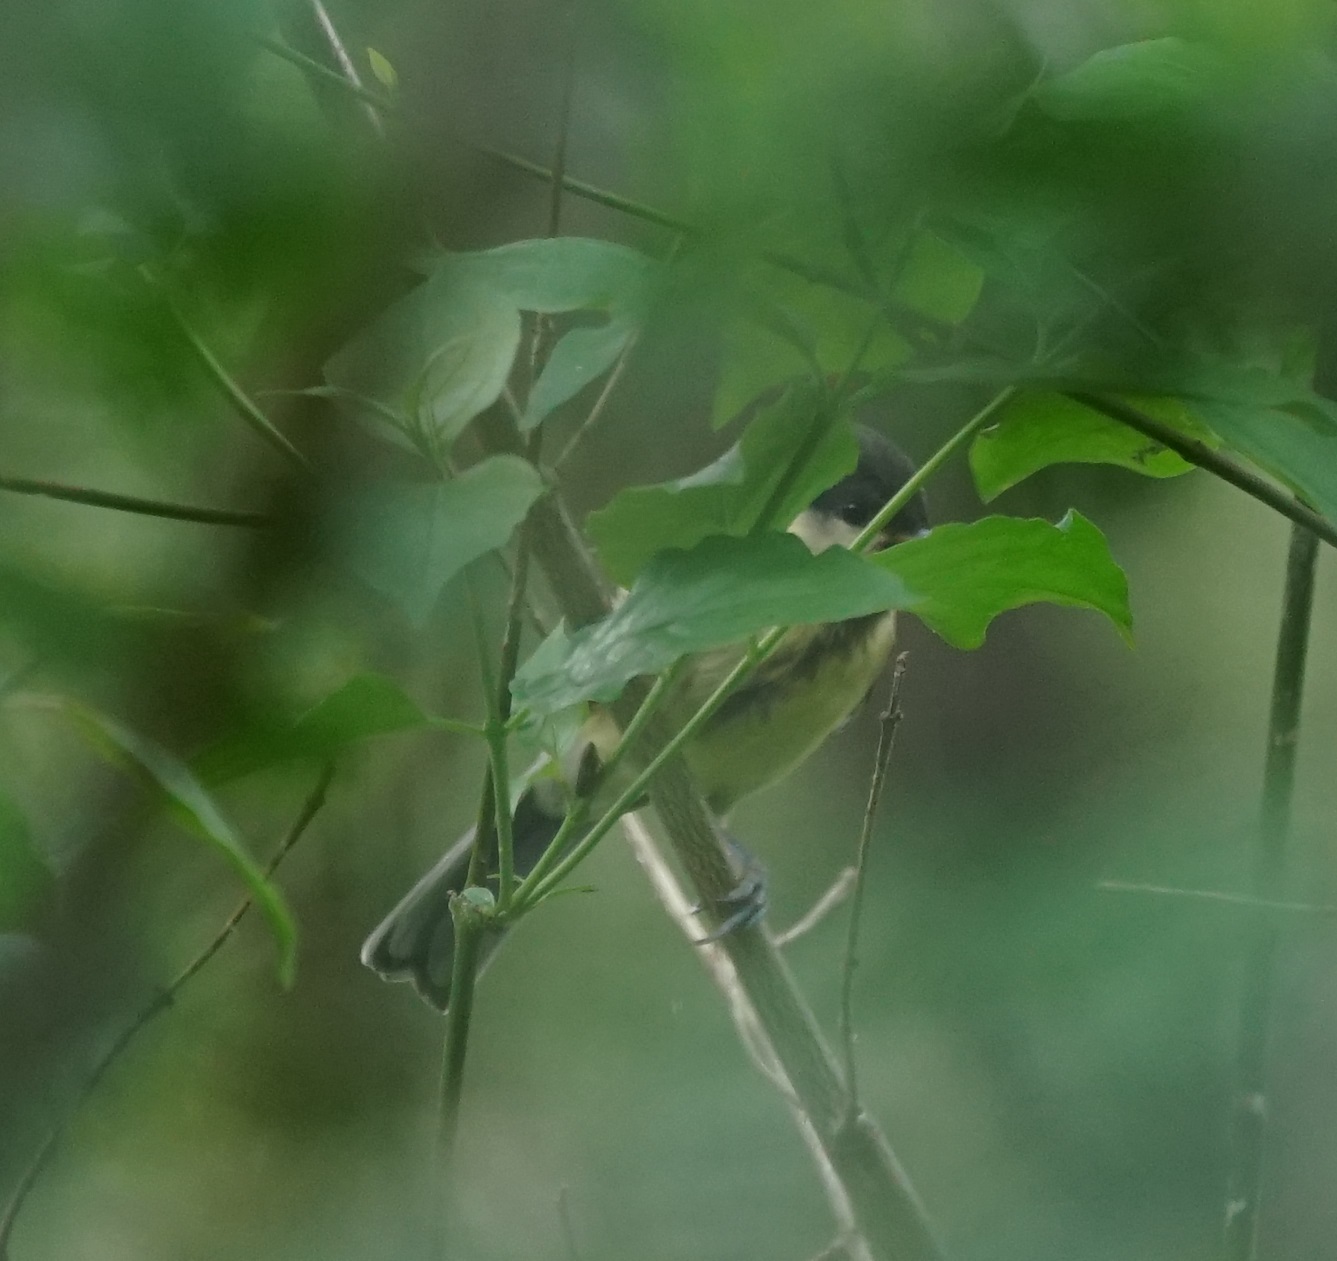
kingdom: Animalia
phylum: Chordata
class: Aves
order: Passeriformes
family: Paridae
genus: Parus
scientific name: Parus major
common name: Great tit
